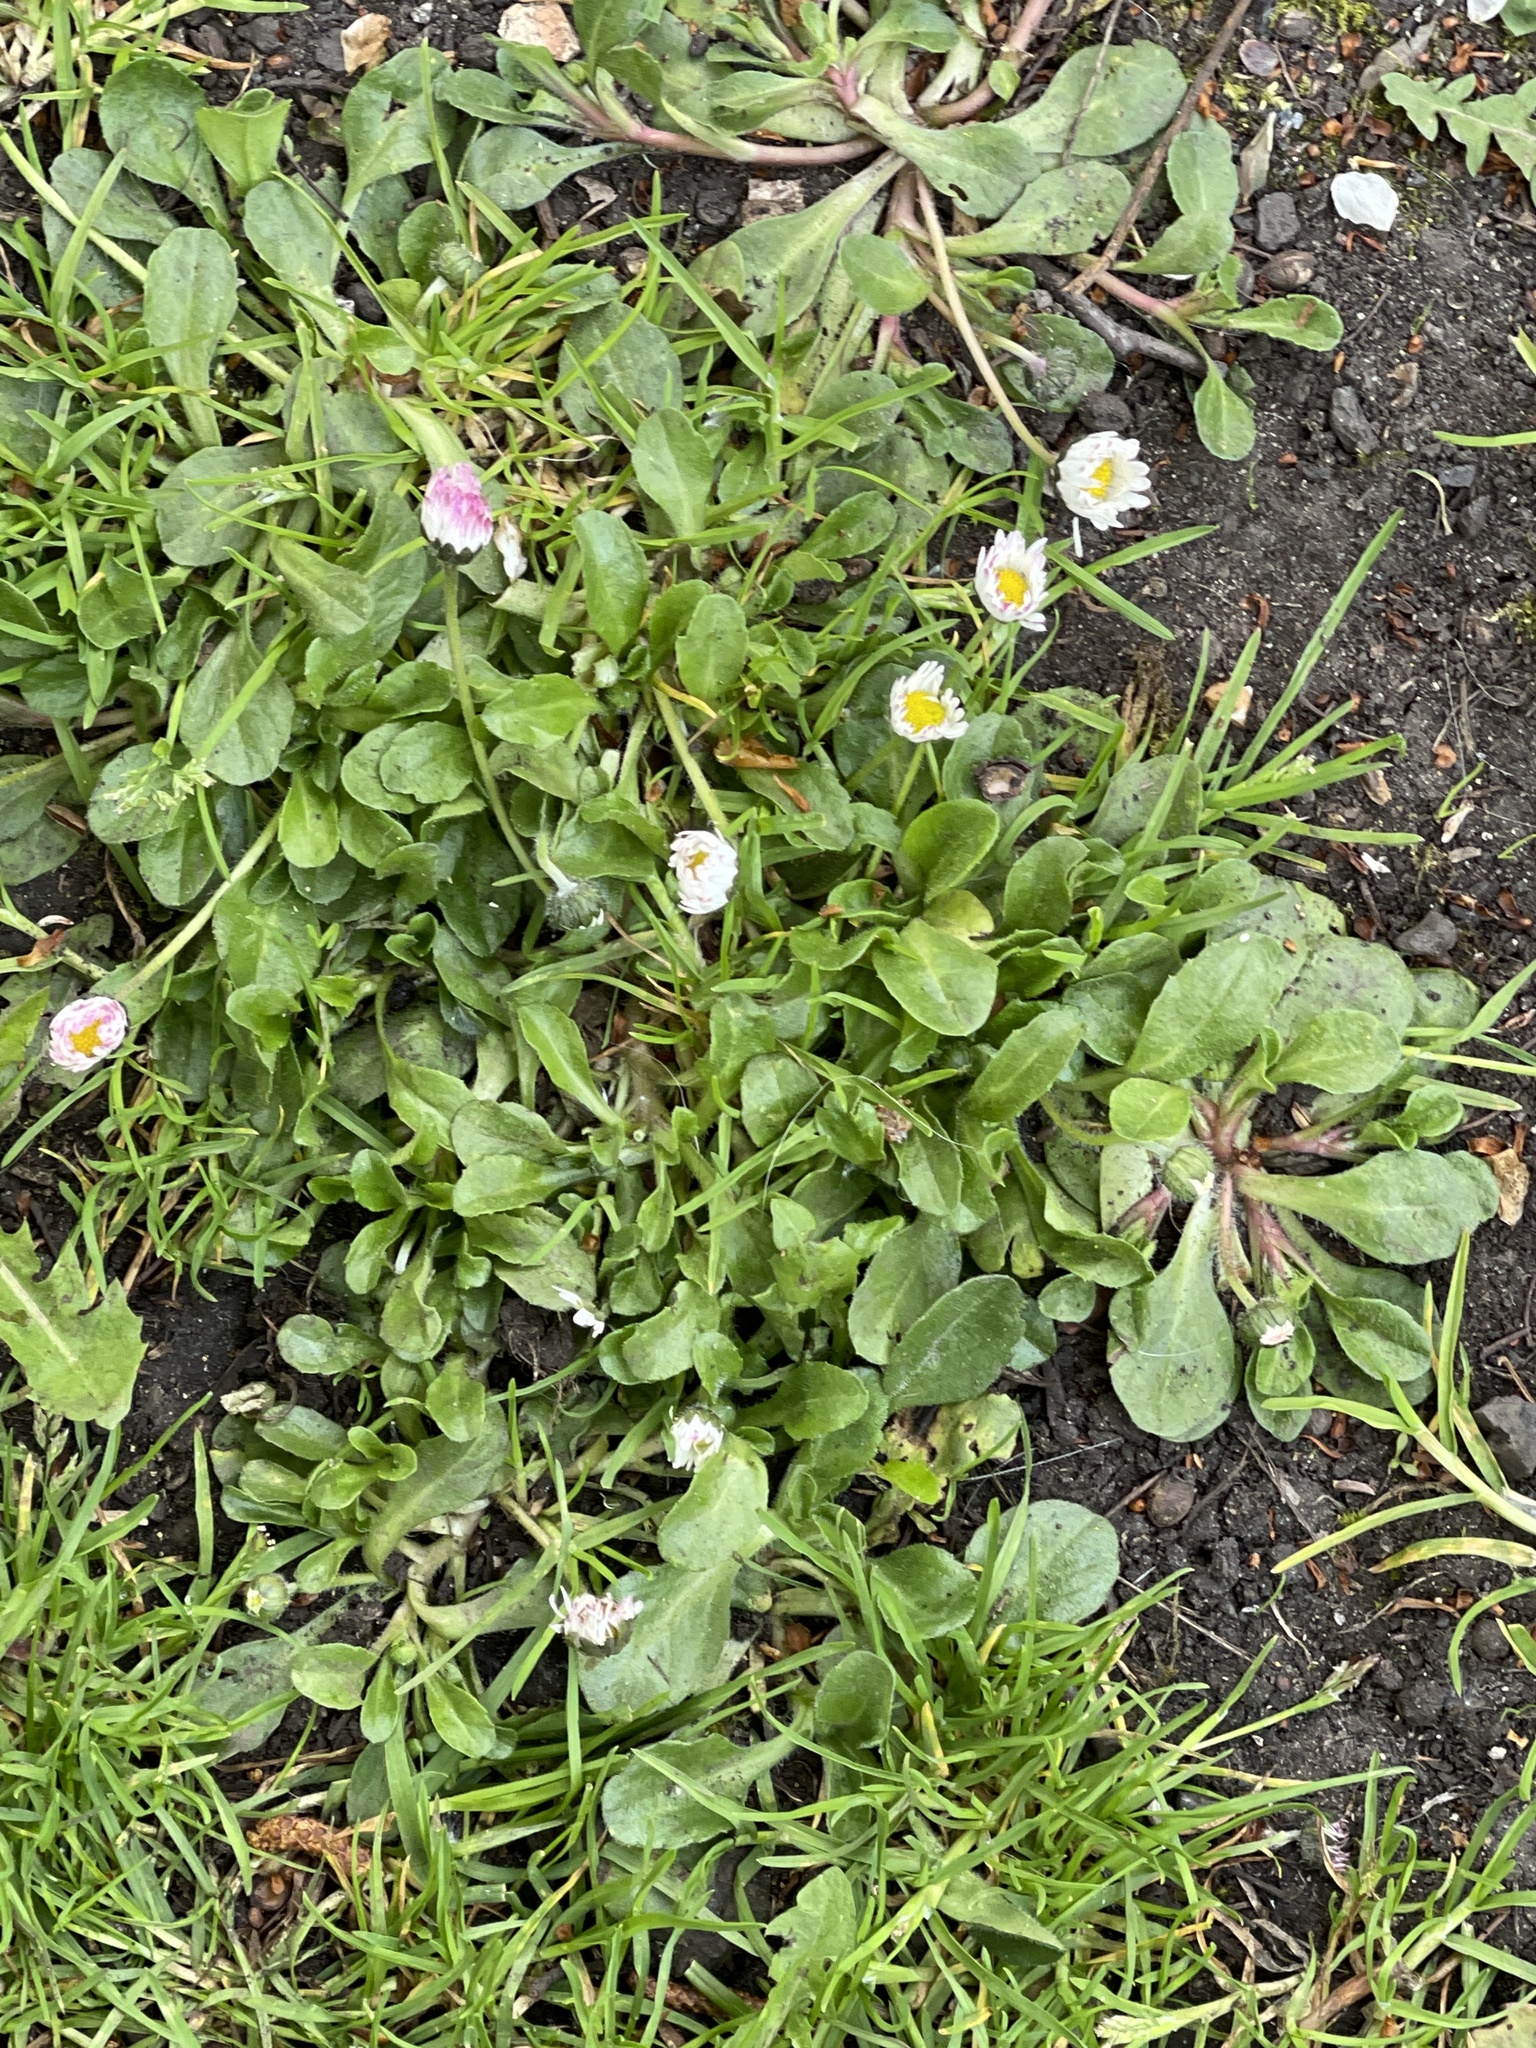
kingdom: Plantae
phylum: Tracheophyta
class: Magnoliopsida
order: Asterales
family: Asteraceae
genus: Bellis
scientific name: Bellis perennis
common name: Lawndaisy
